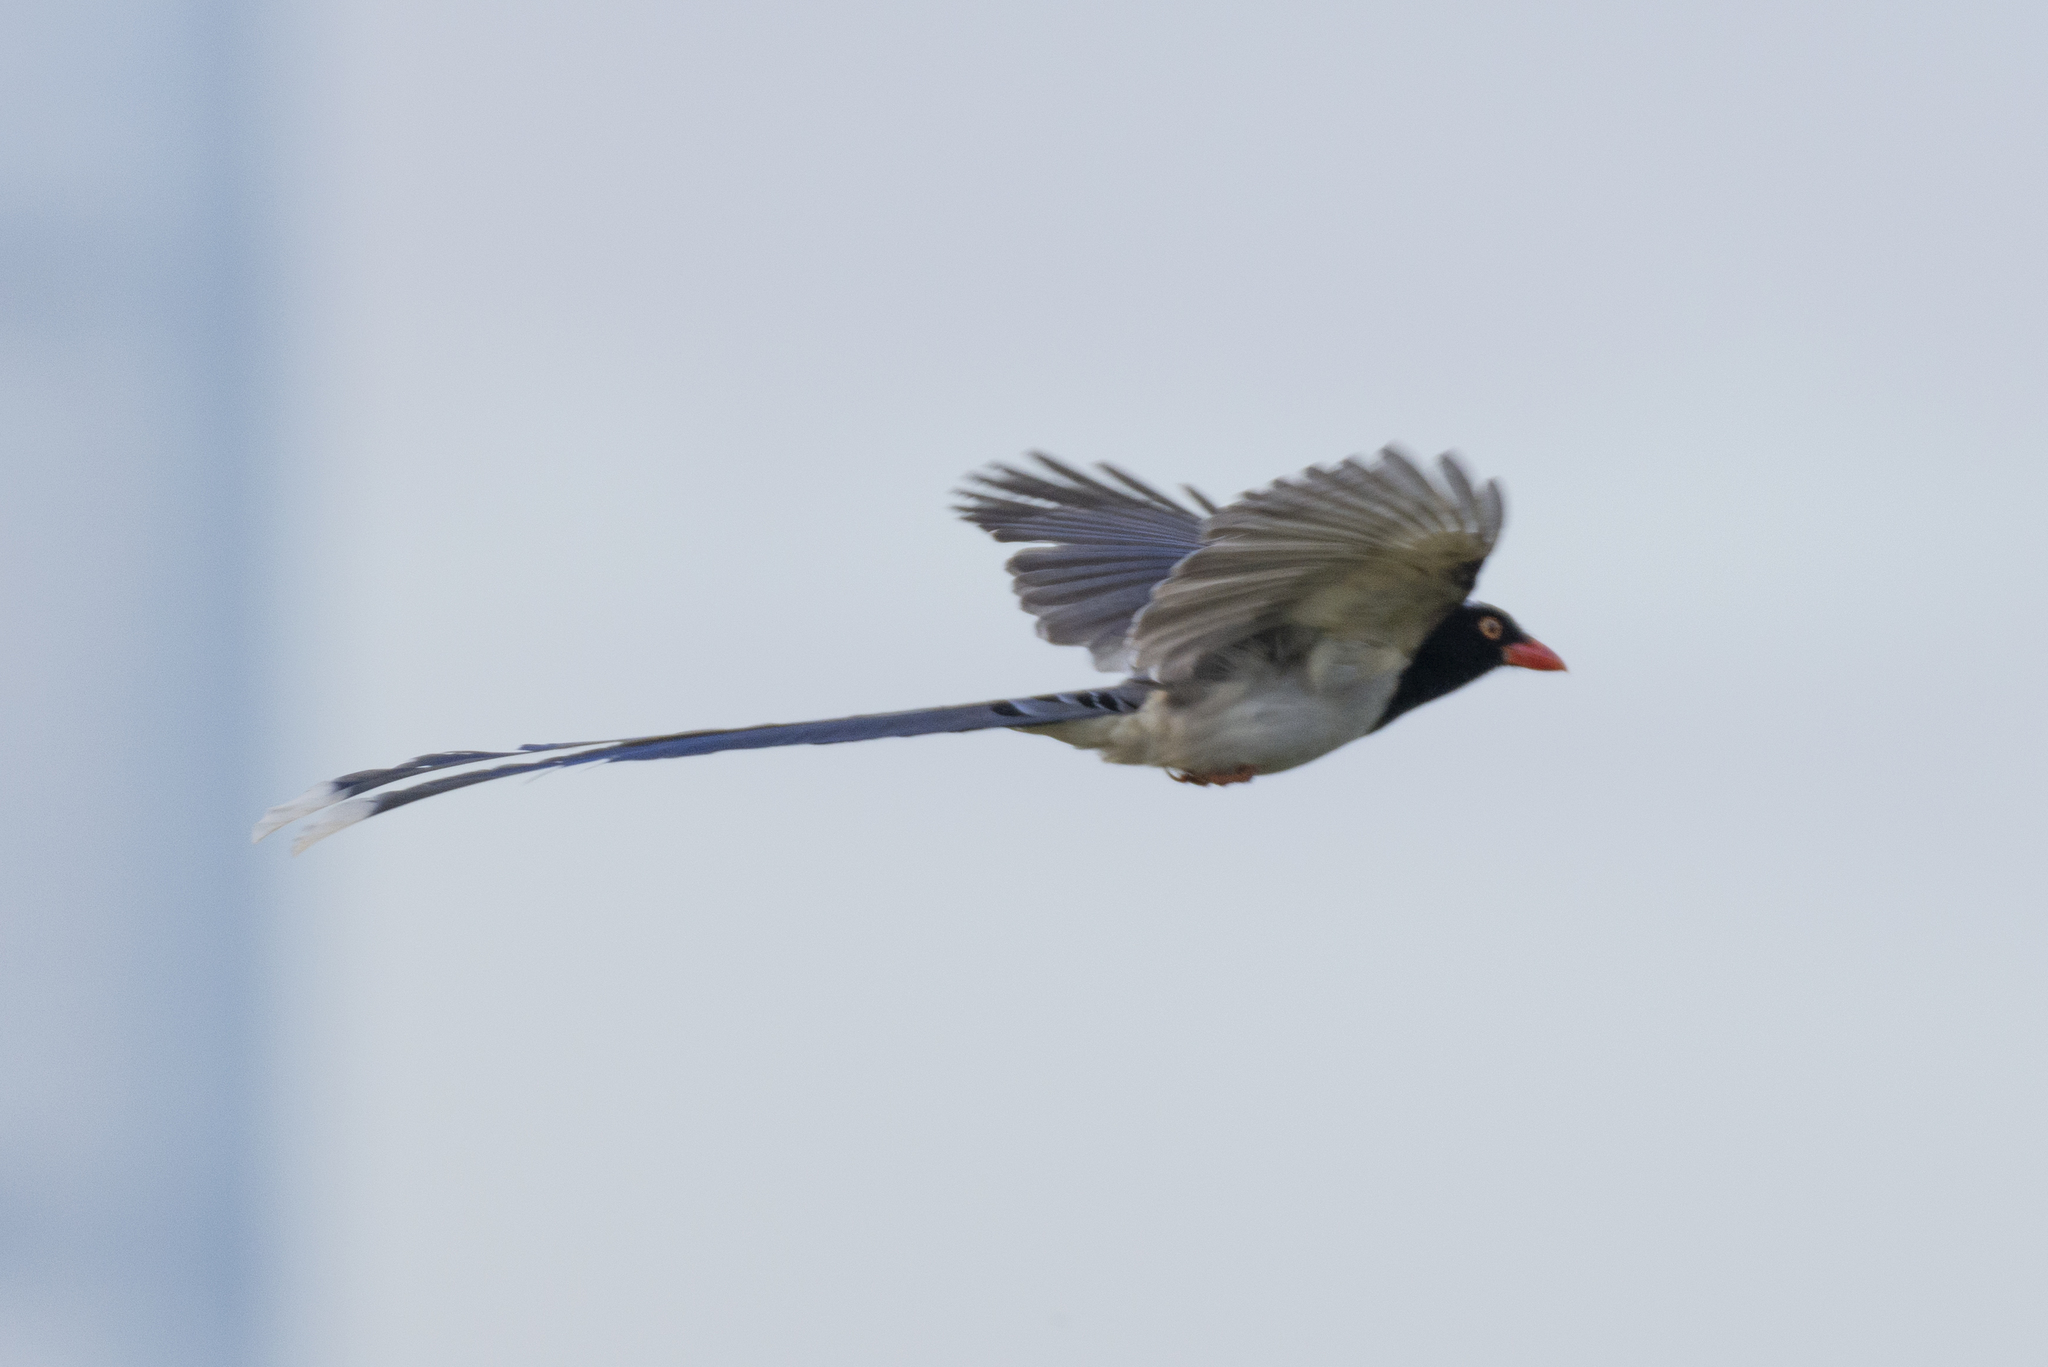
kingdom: Animalia
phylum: Chordata
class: Aves
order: Passeriformes
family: Corvidae
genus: Urocissa
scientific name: Urocissa erythroryncha
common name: Red-billed blue magpie
